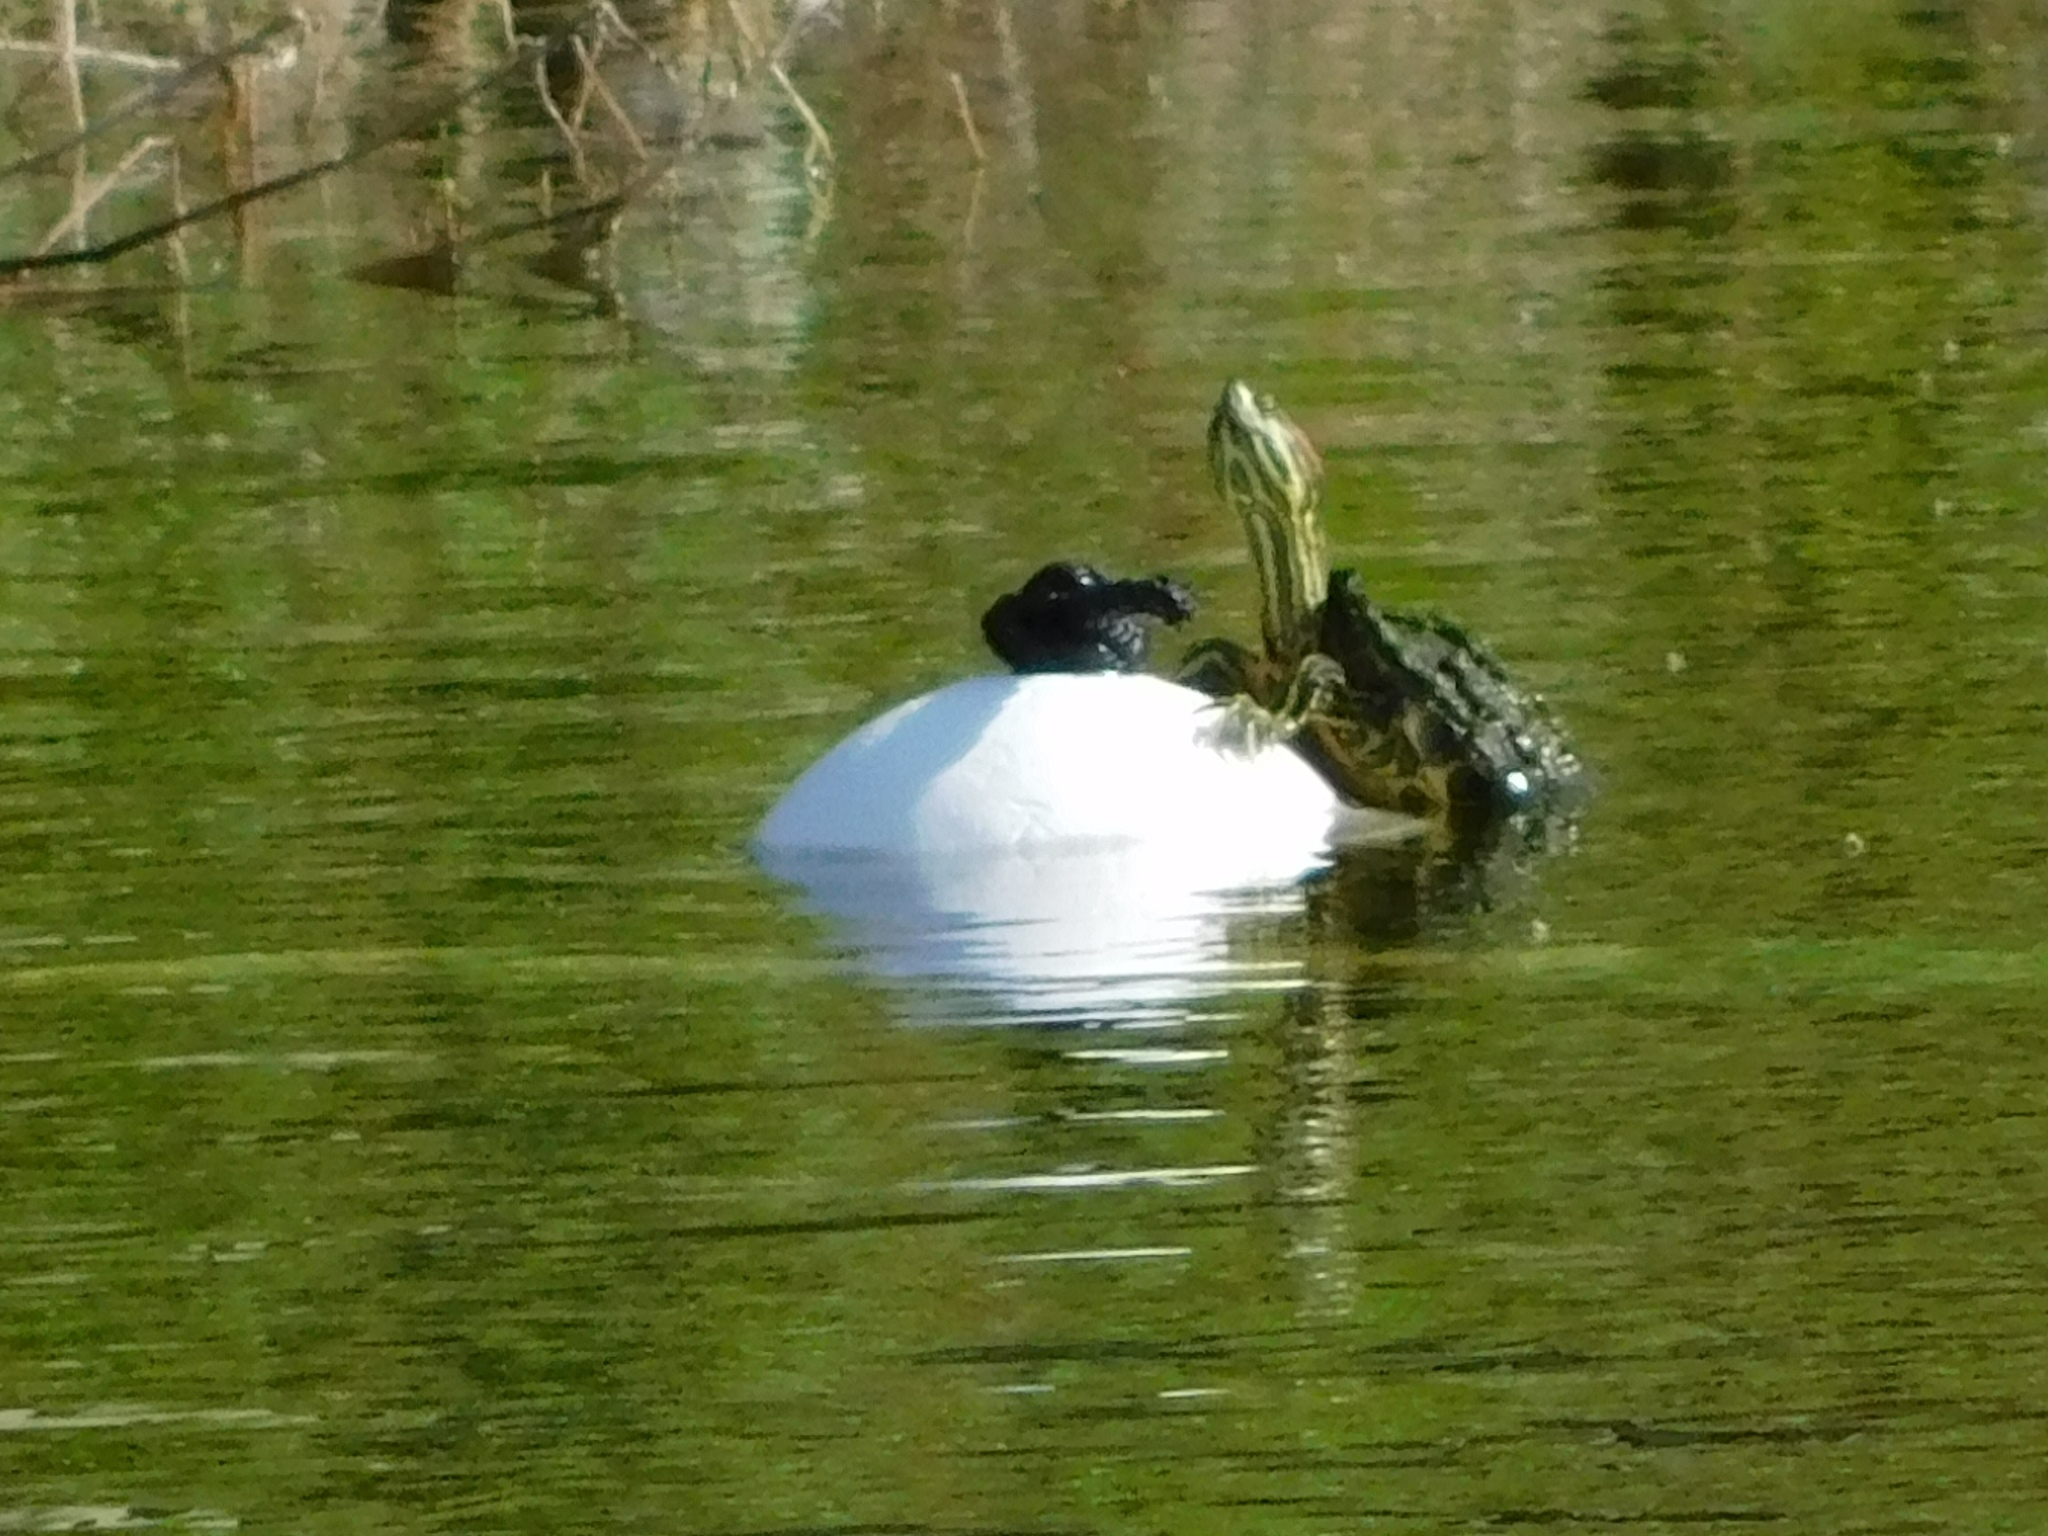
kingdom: Animalia
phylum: Chordata
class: Testudines
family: Emydidae
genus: Trachemys
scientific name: Trachemys scripta
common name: Slider
